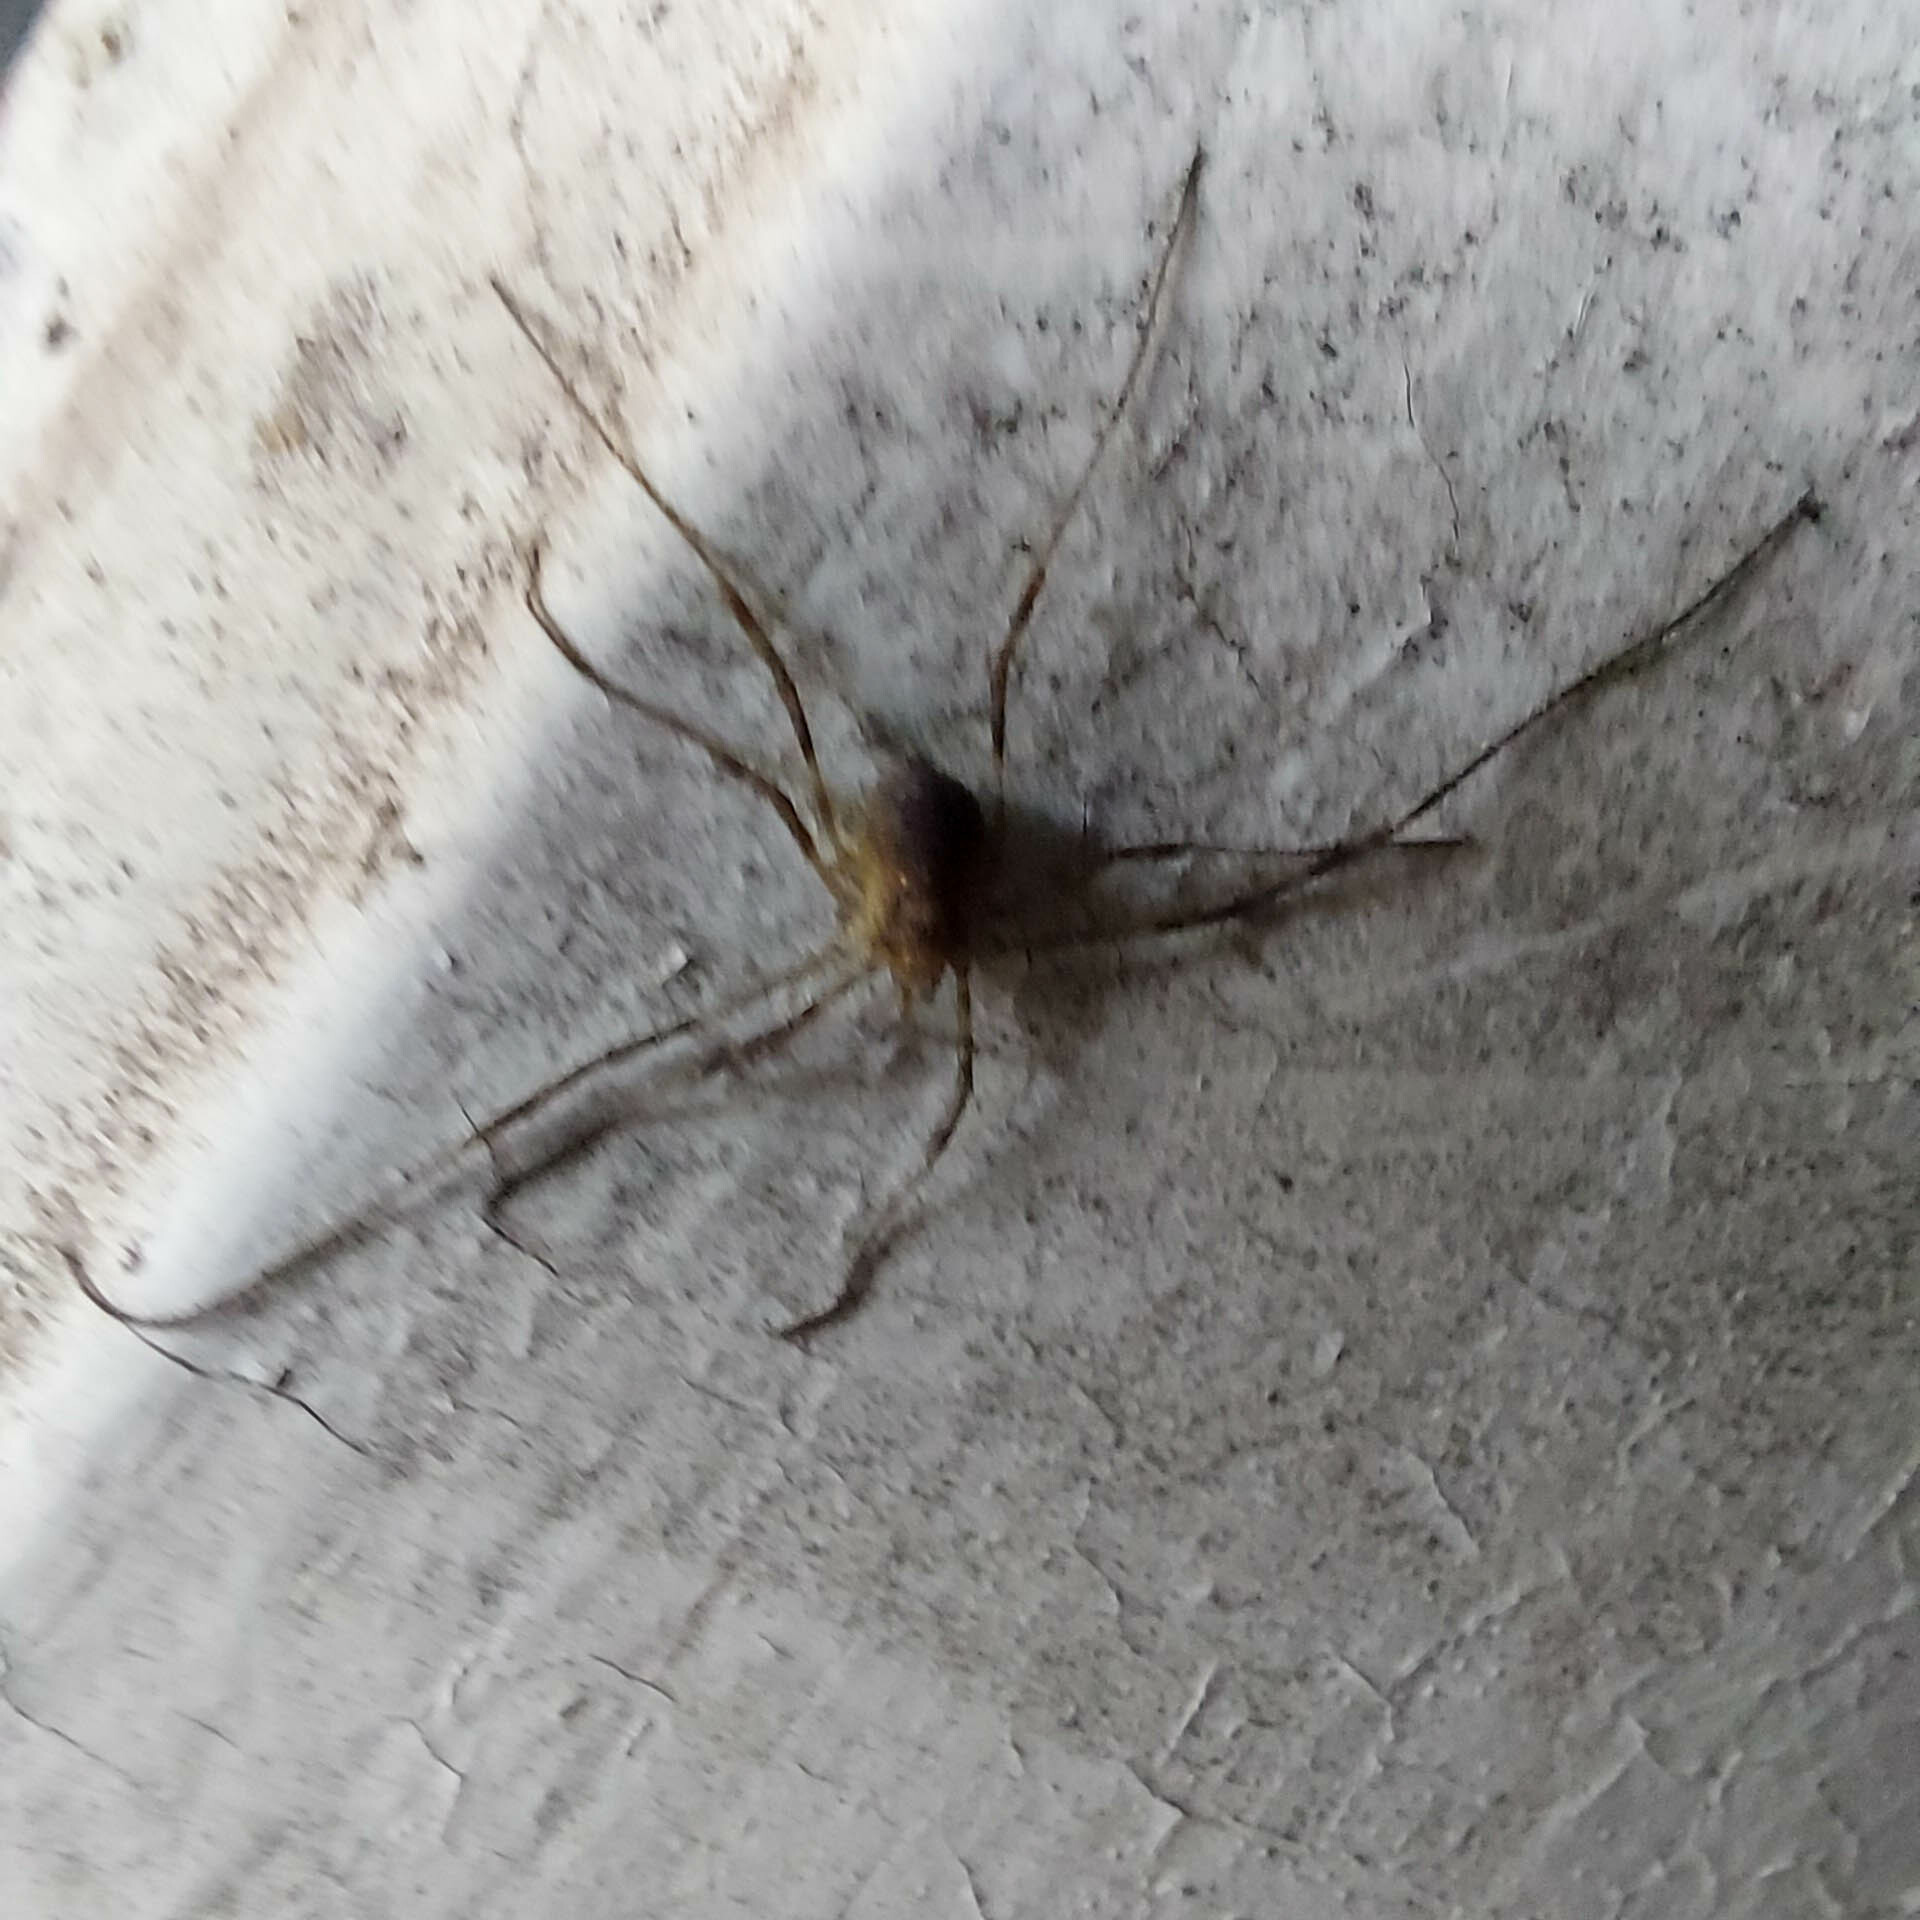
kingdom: Animalia
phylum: Arthropoda
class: Arachnida
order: Opiliones
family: Phalangiidae
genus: Oligolophus
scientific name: Oligolophus hansenii
